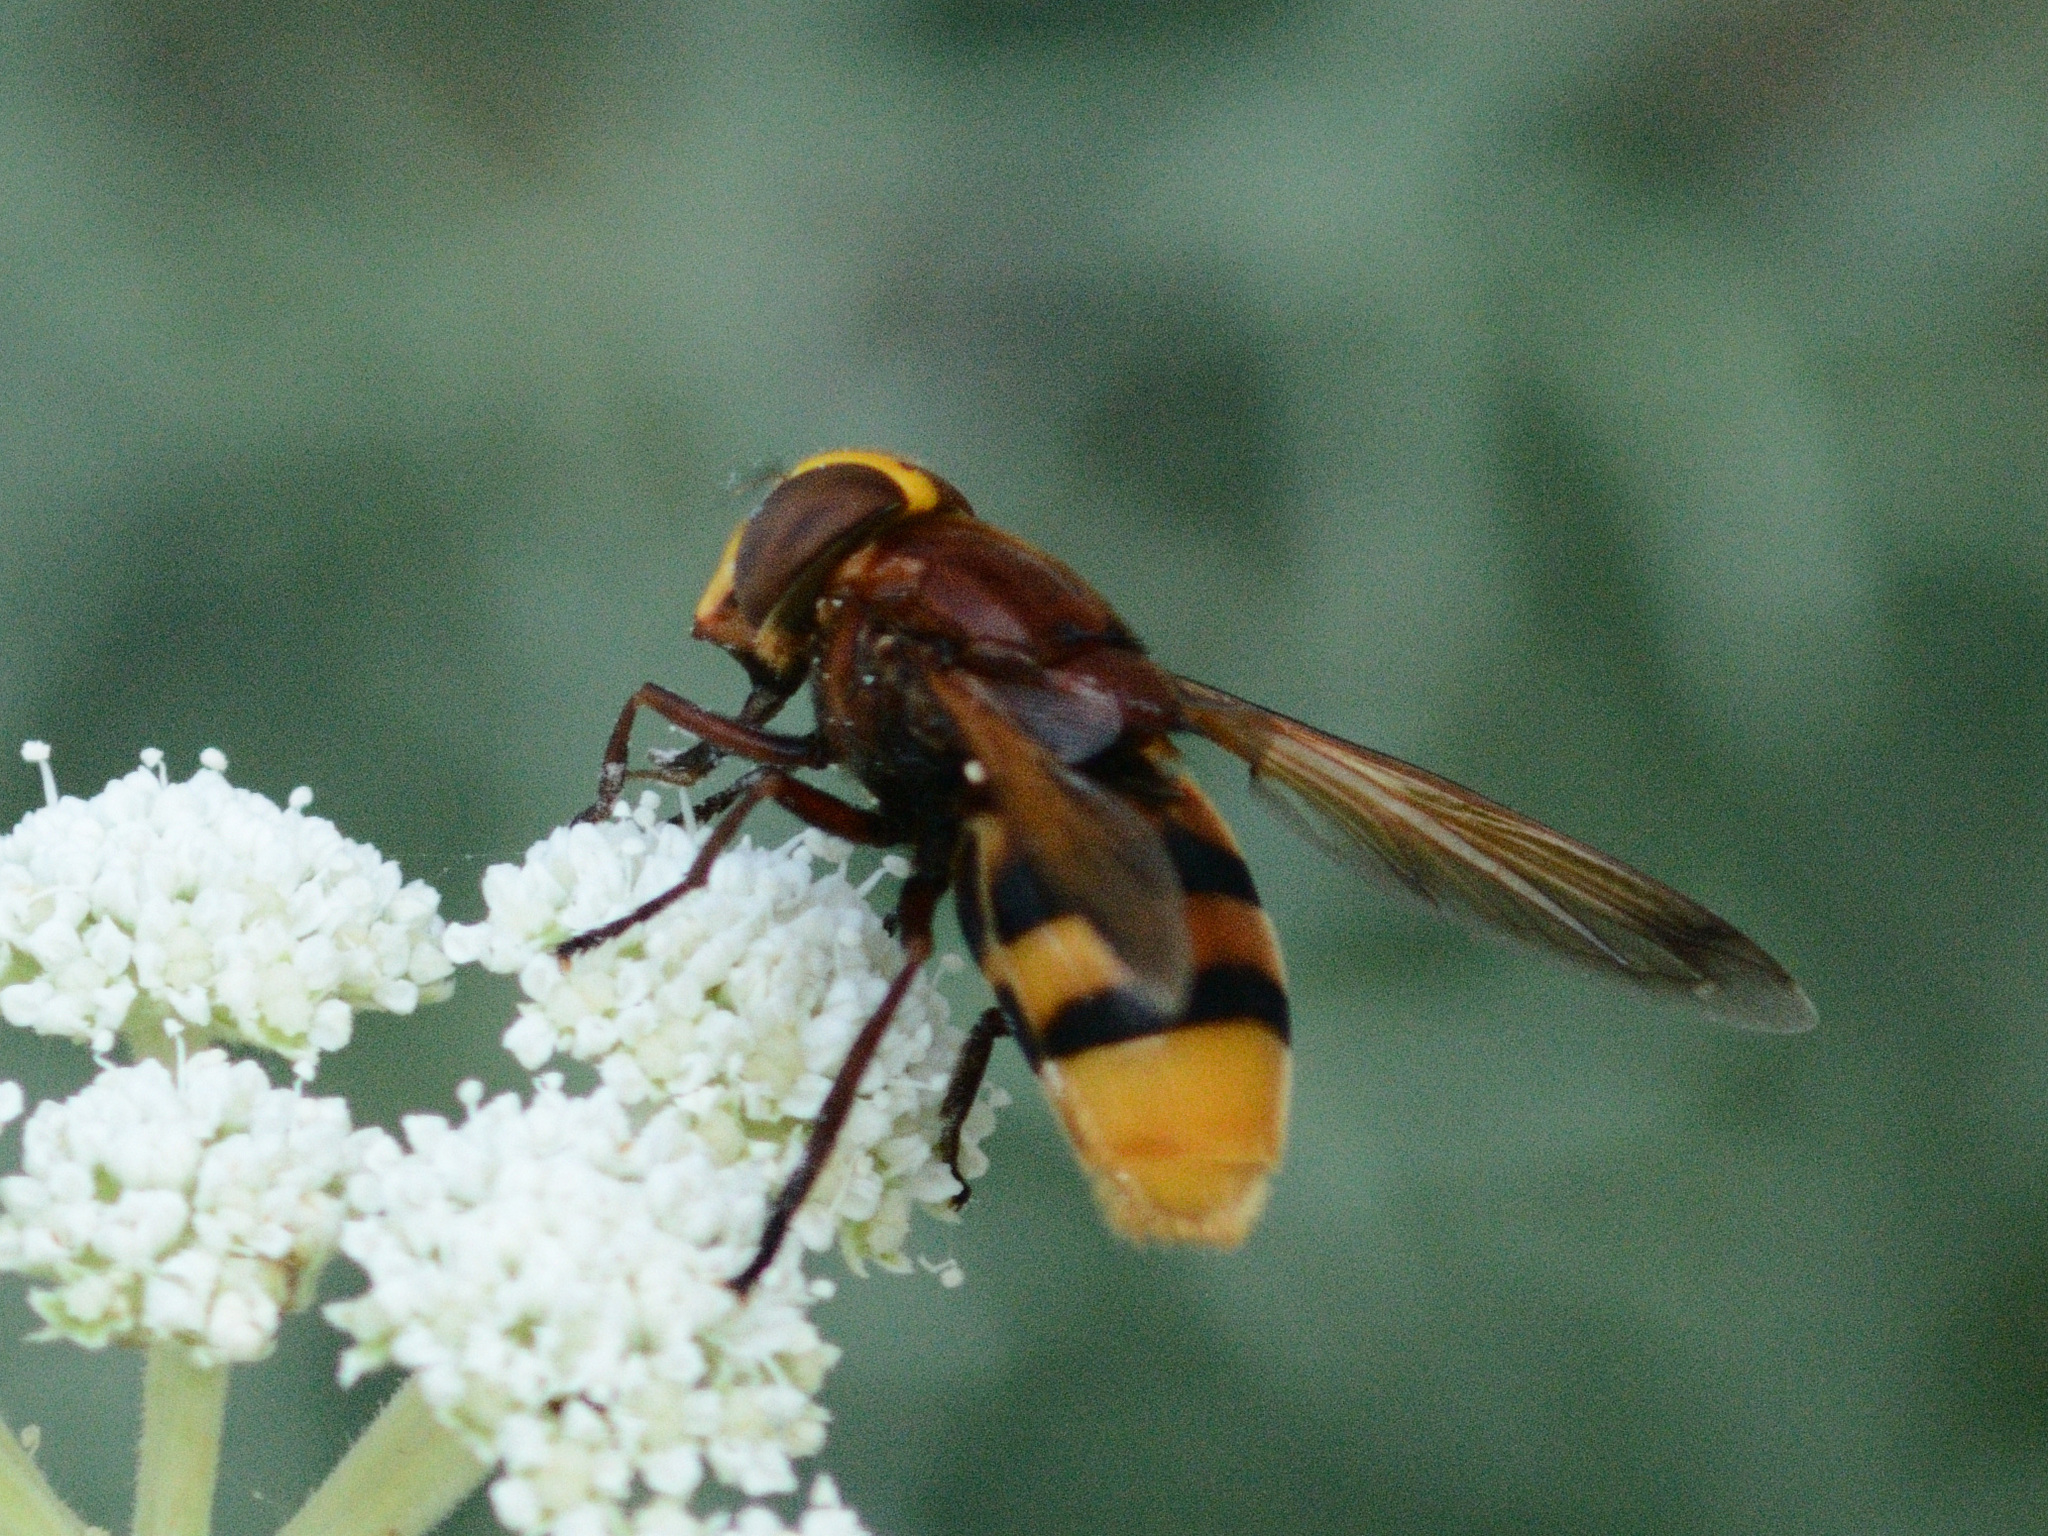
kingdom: Animalia
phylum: Arthropoda
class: Insecta
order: Diptera
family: Syrphidae
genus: Volucella
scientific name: Volucella zonaria
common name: Hornet hoverfly
